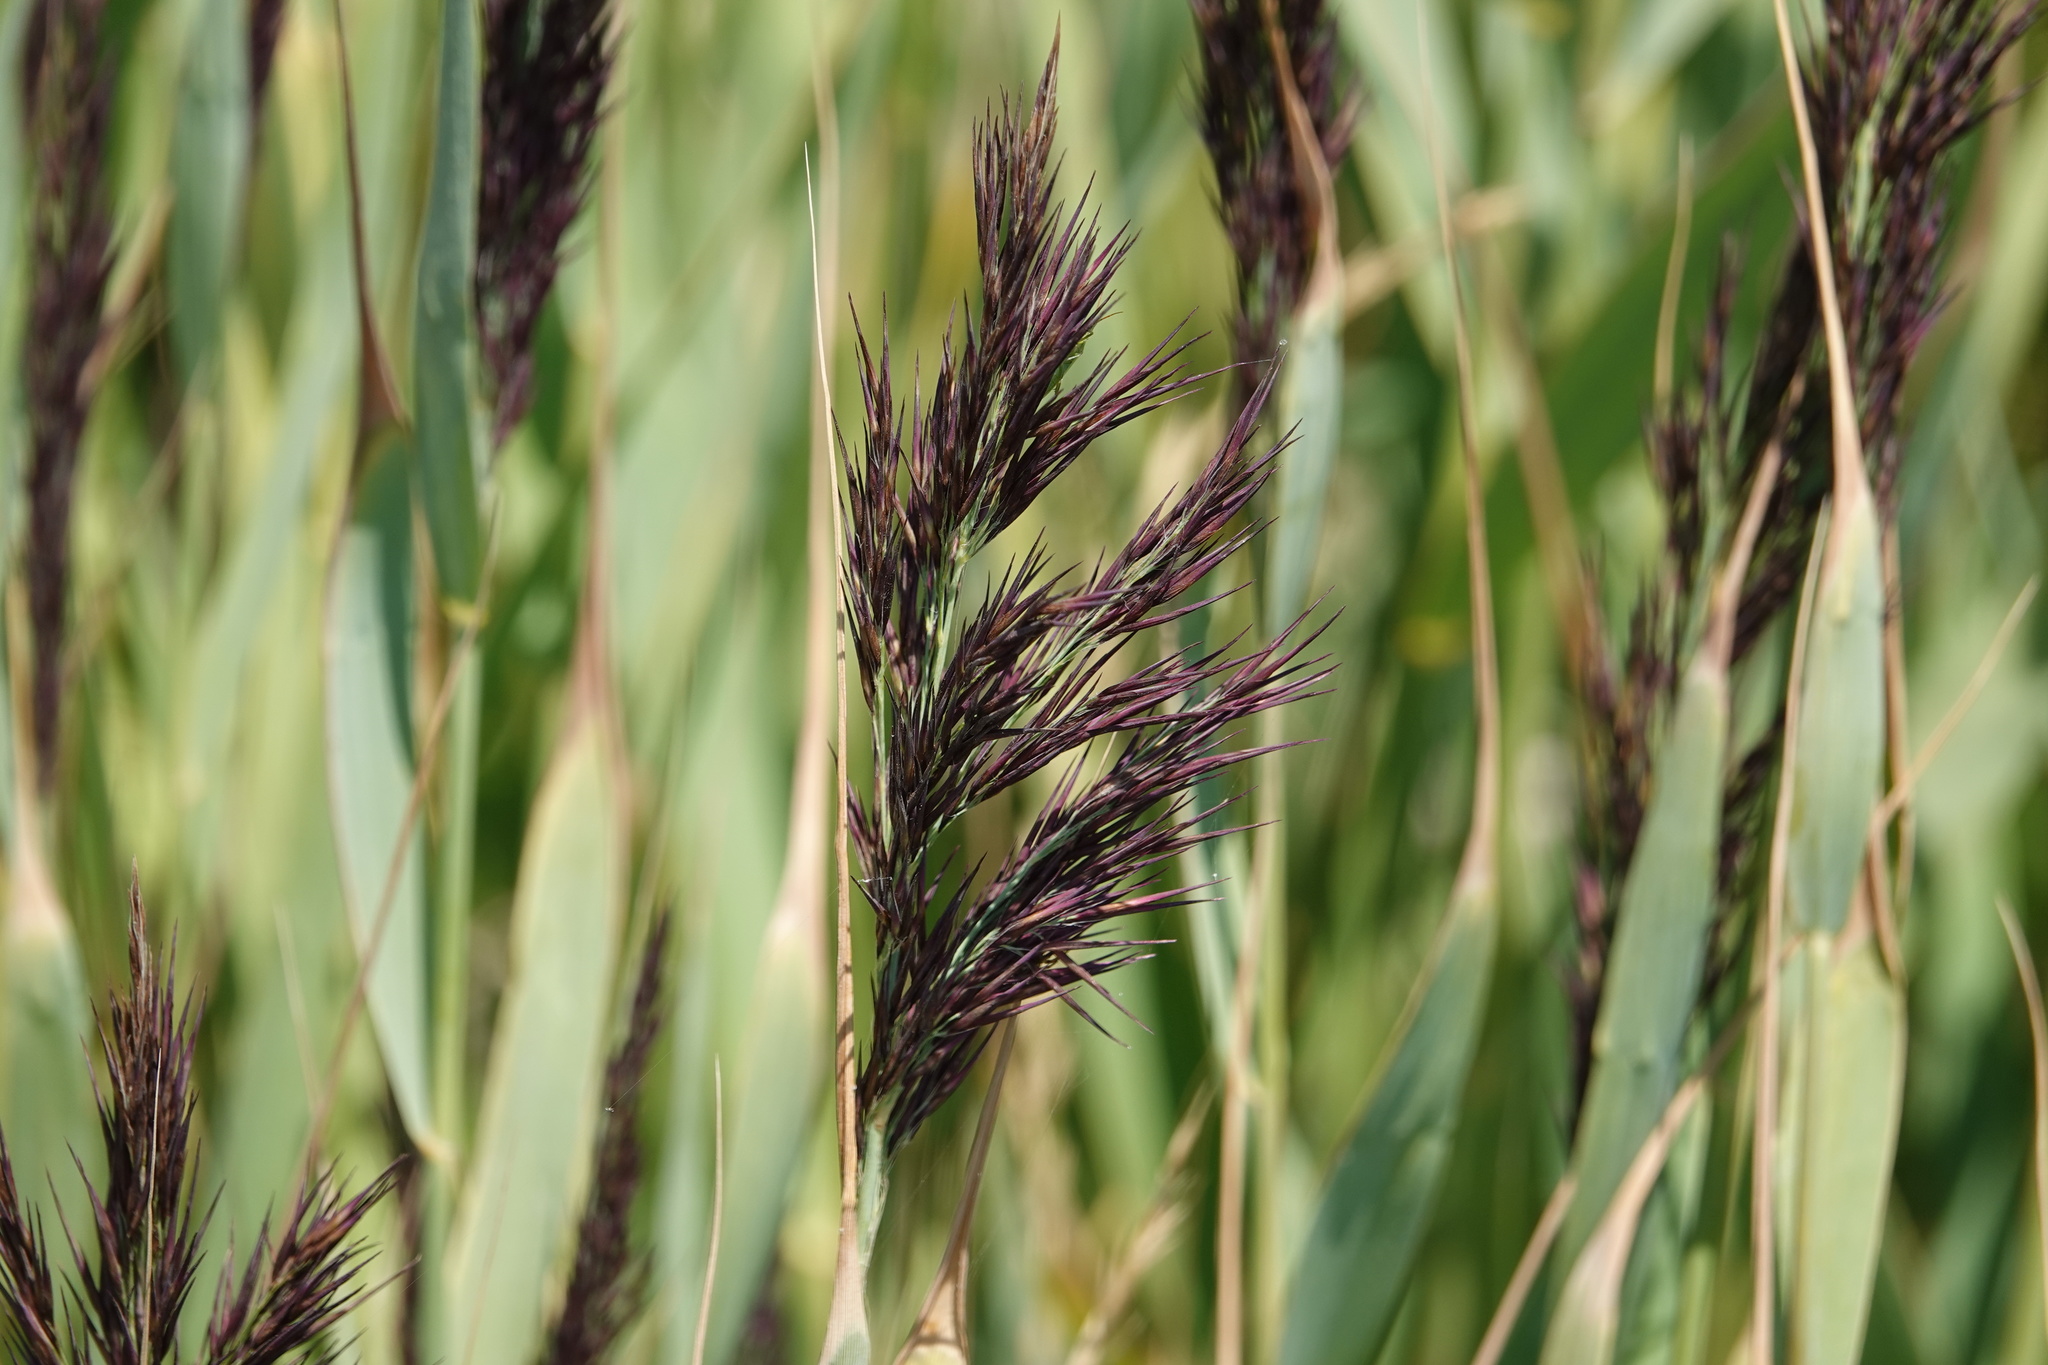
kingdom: Plantae
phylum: Tracheophyta
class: Liliopsida
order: Poales
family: Poaceae
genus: Phragmites
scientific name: Phragmites australis
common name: Common reed
